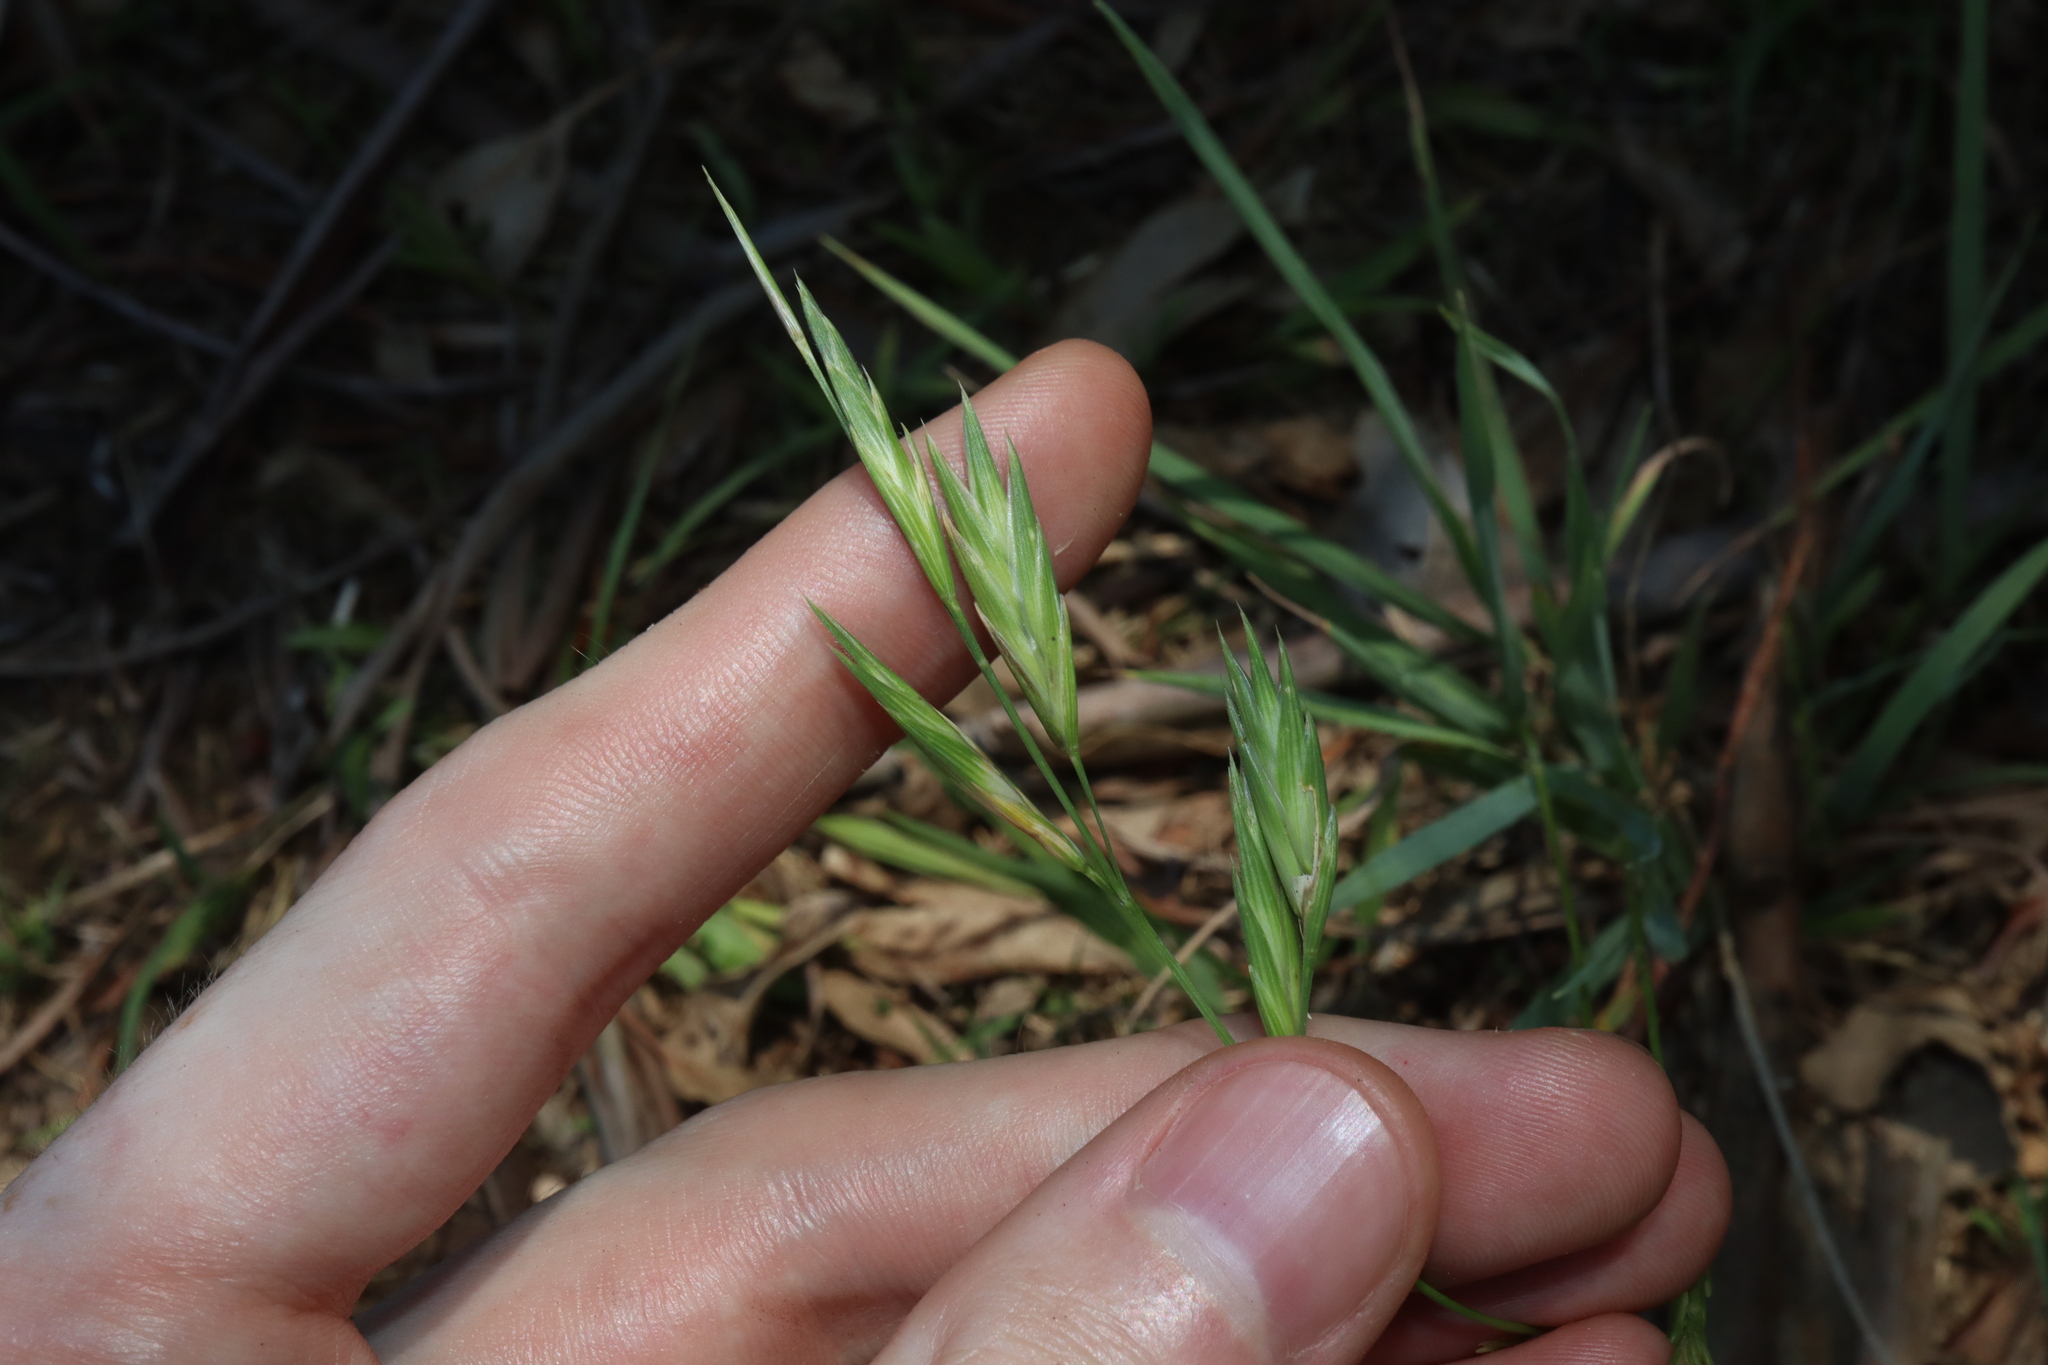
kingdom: Plantae
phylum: Tracheophyta
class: Liliopsida
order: Poales
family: Poaceae
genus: Bromus
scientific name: Bromus catharticus
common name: Rescuegrass
